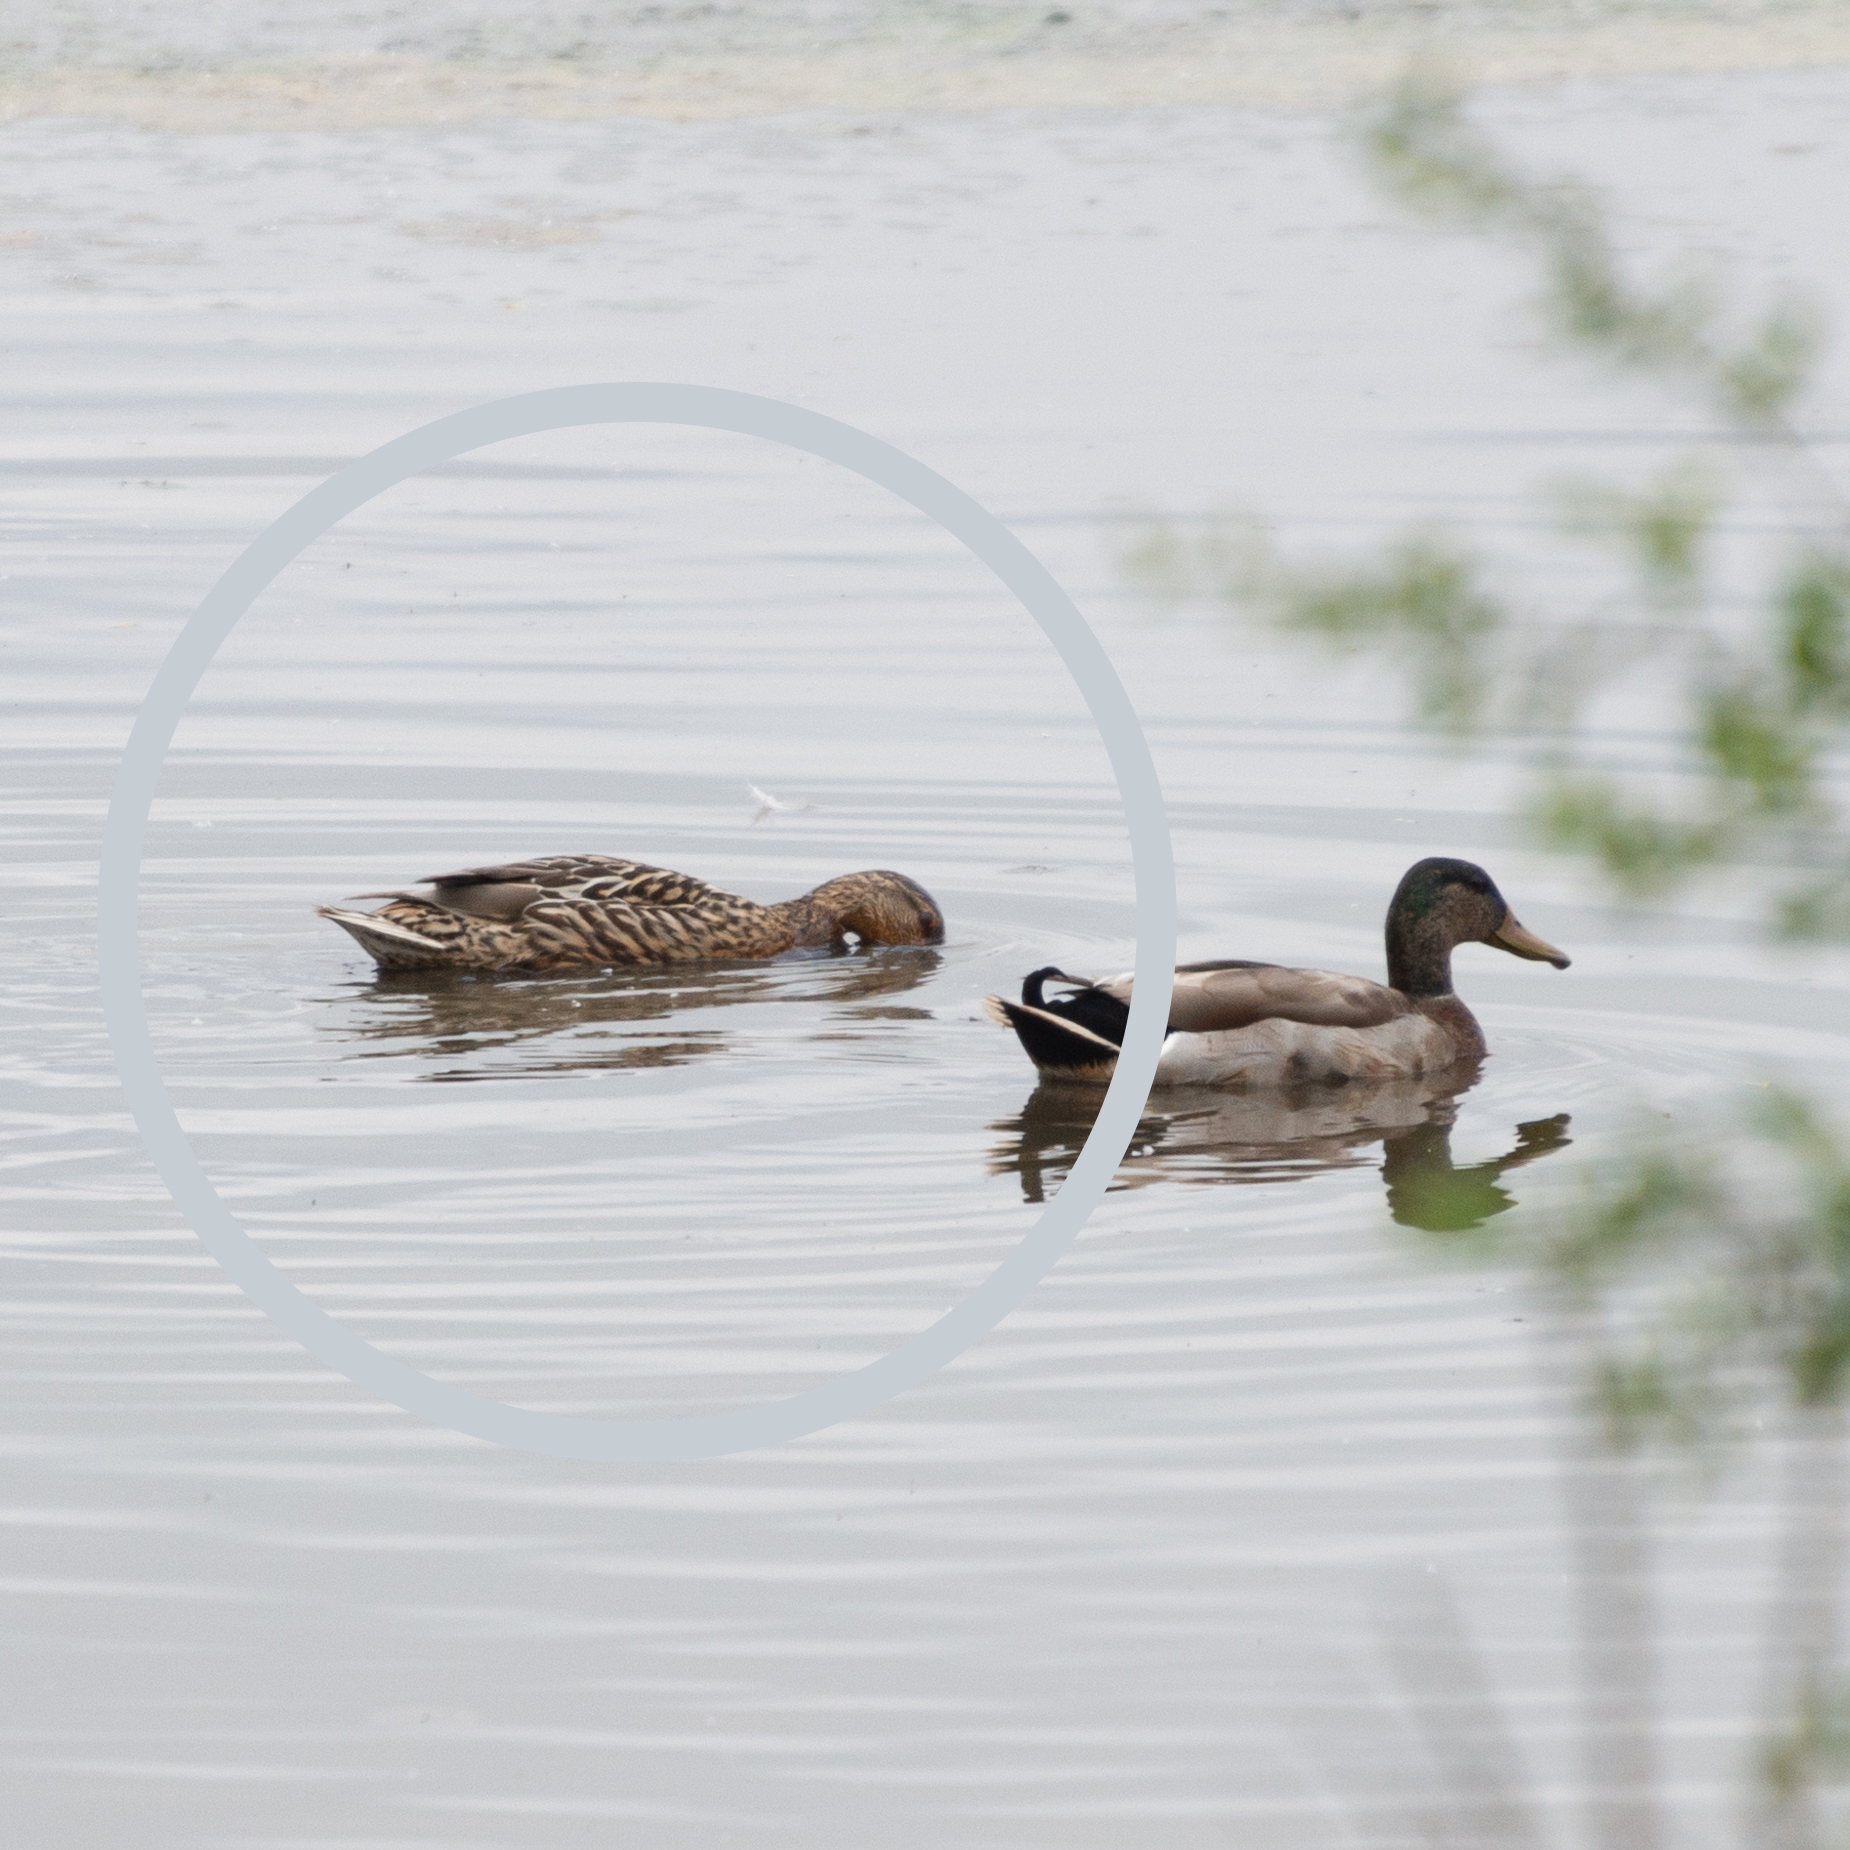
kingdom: Animalia
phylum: Chordata
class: Aves
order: Anseriformes
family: Anatidae
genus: Anas
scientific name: Anas platyrhynchos
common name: Mallard
